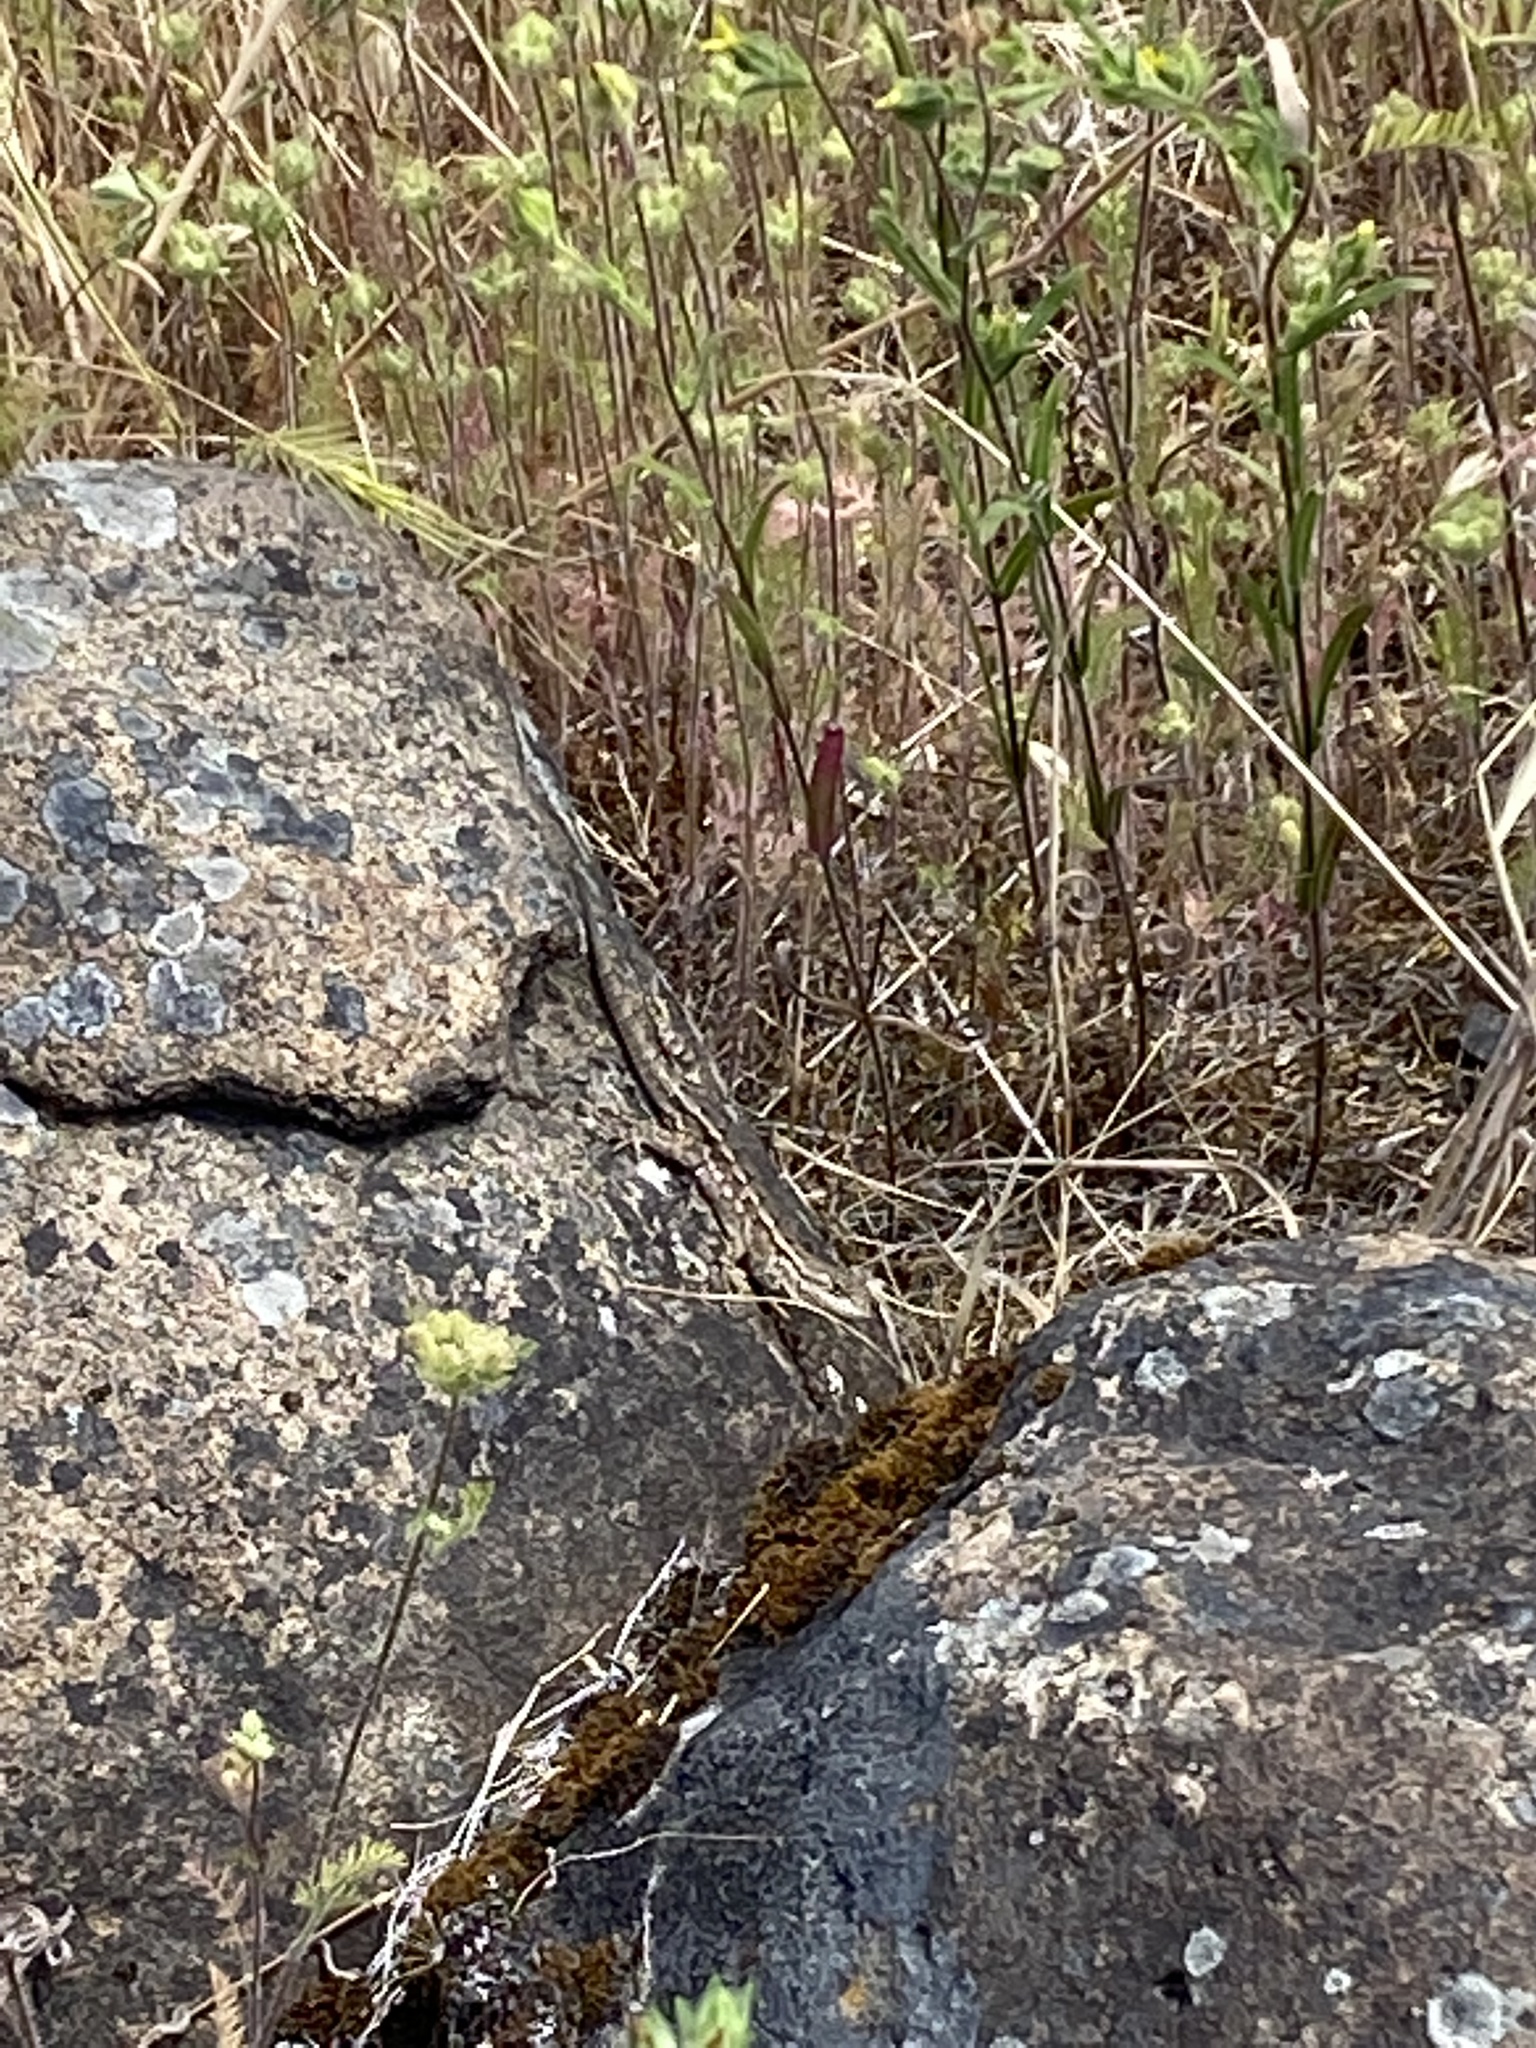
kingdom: Animalia
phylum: Chordata
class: Squamata
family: Phrynosomatidae
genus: Sceloporus
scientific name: Sceloporus occidentalis
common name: Western fence lizard
